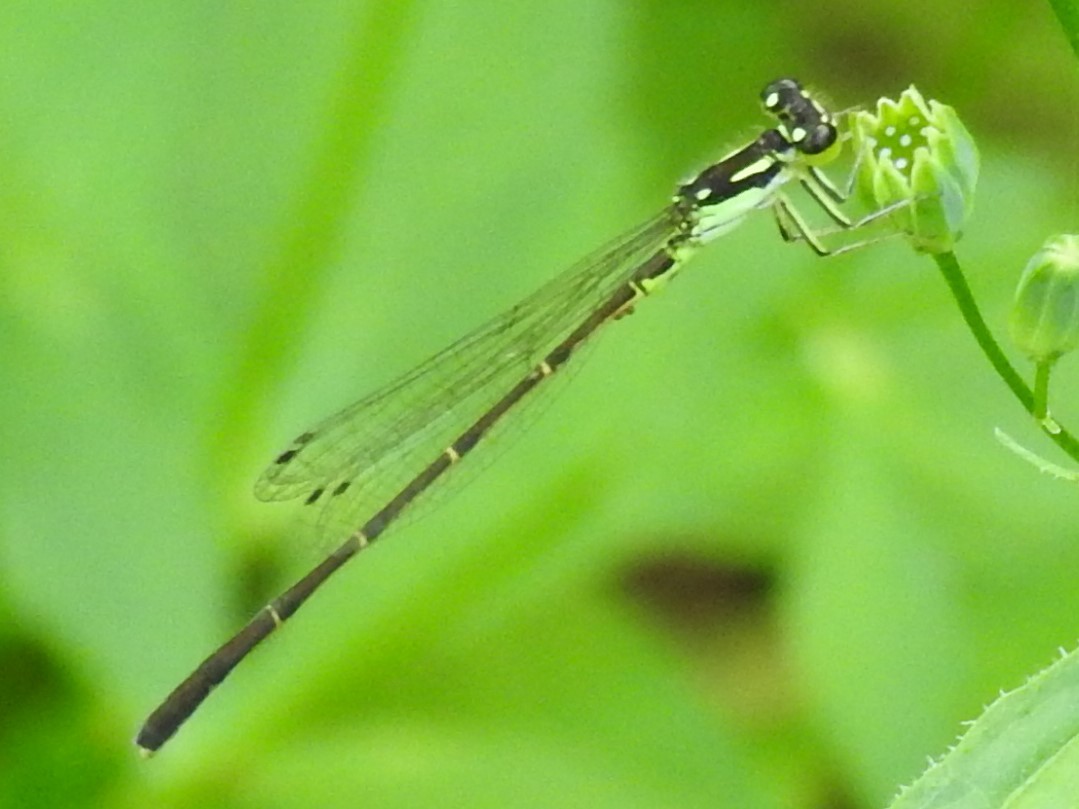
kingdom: Animalia
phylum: Arthropoda
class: Insecta
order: Odonata
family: Coenagrionidae
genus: Ischnura
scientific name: Ischnura posita
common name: Fragile forktail
